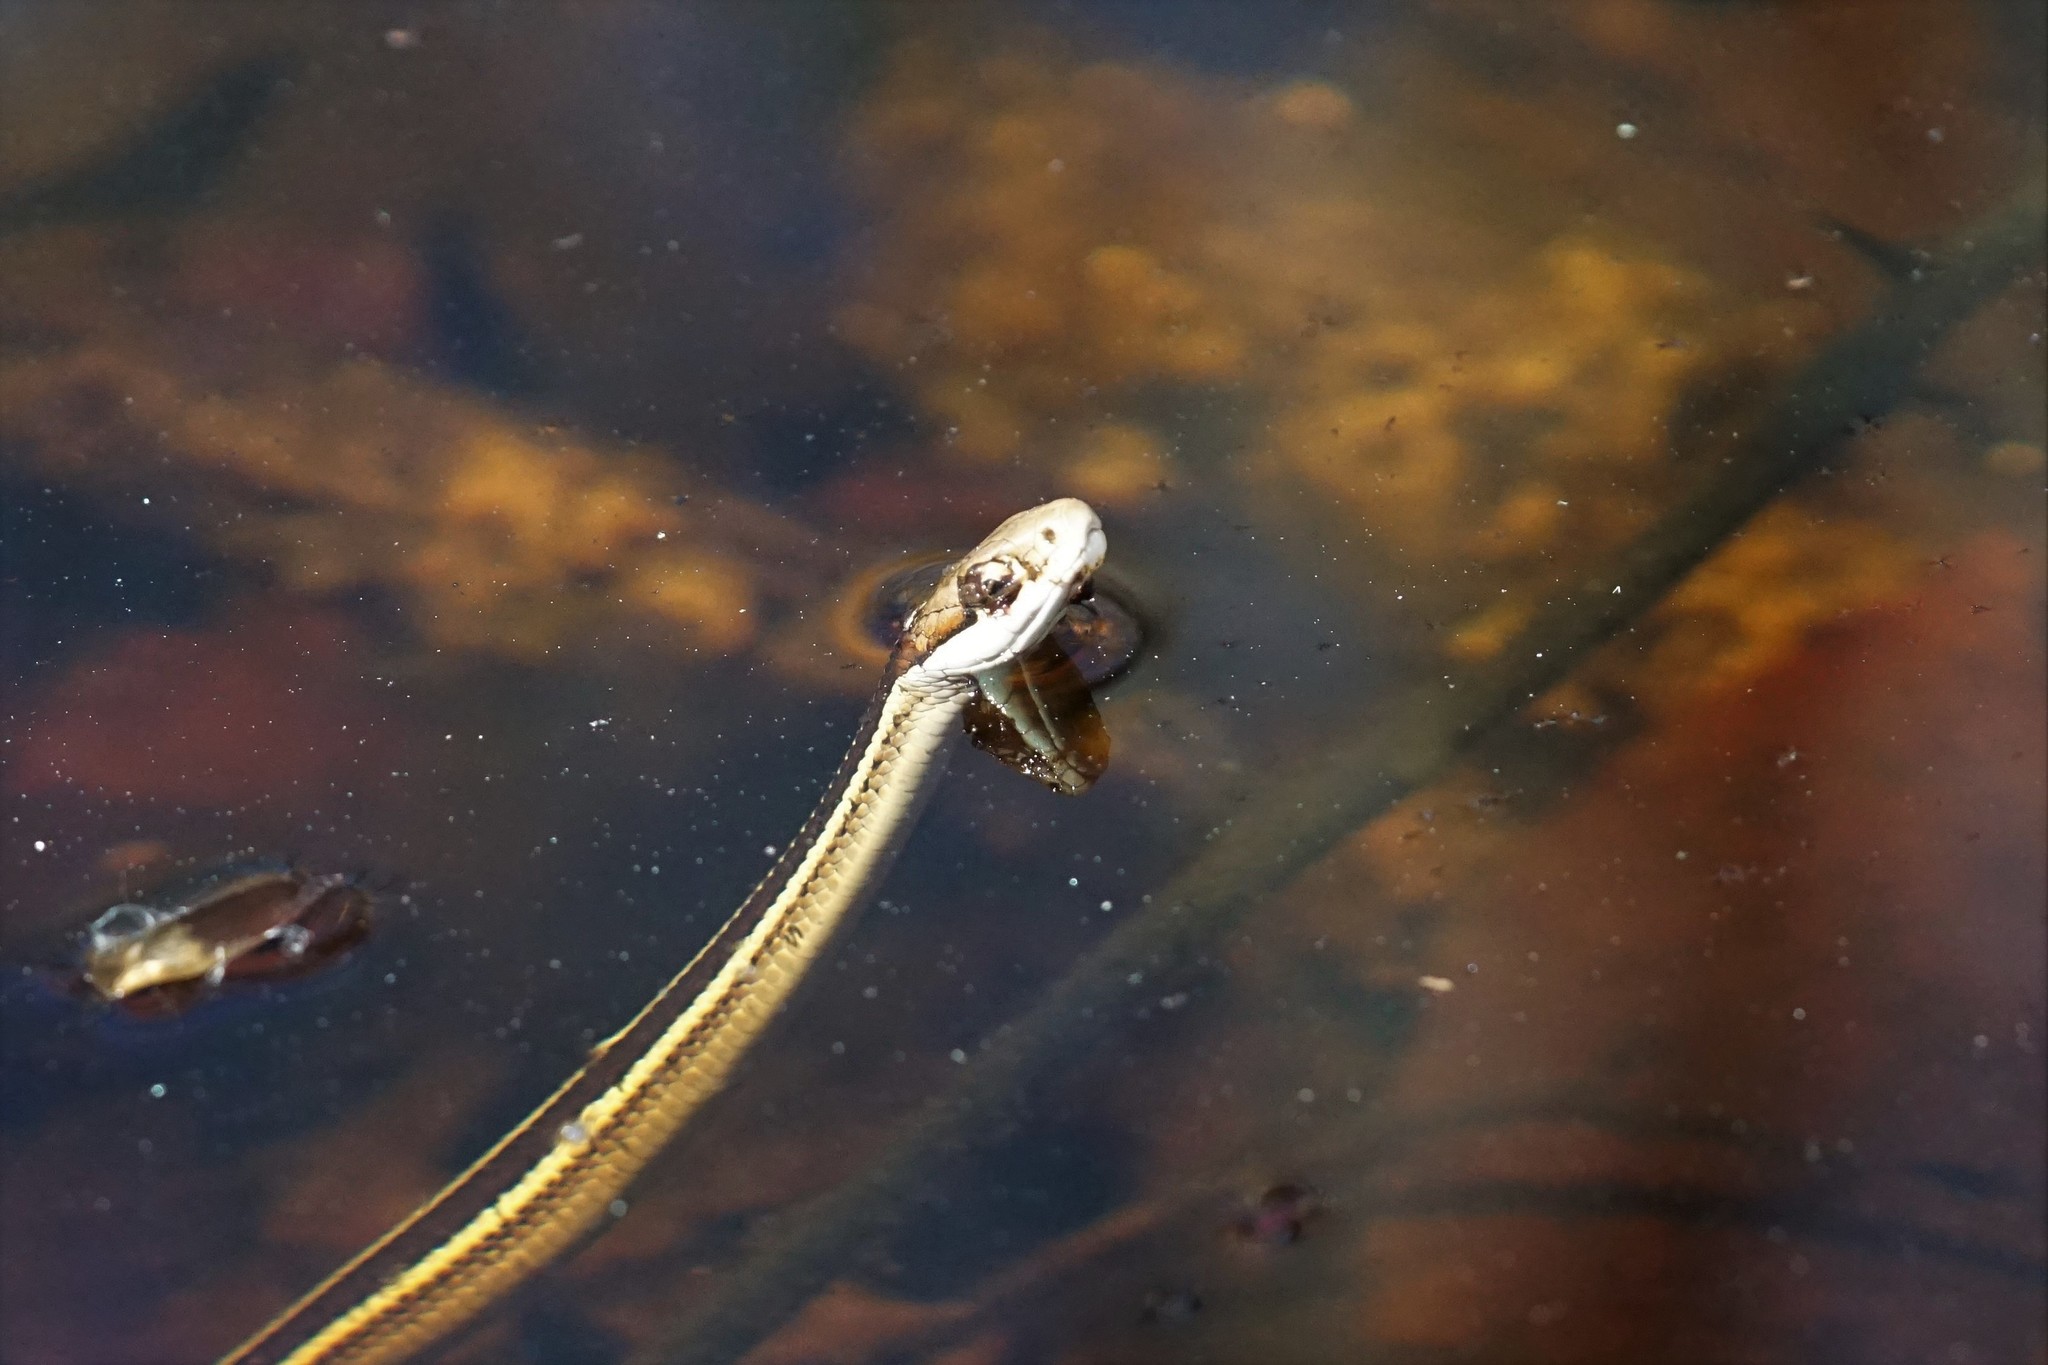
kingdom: Animalia
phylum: Chordata
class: Squamata
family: Colubridae
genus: Thamnophis
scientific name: Thamnophis saurita
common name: Eastern ribbonsnake
